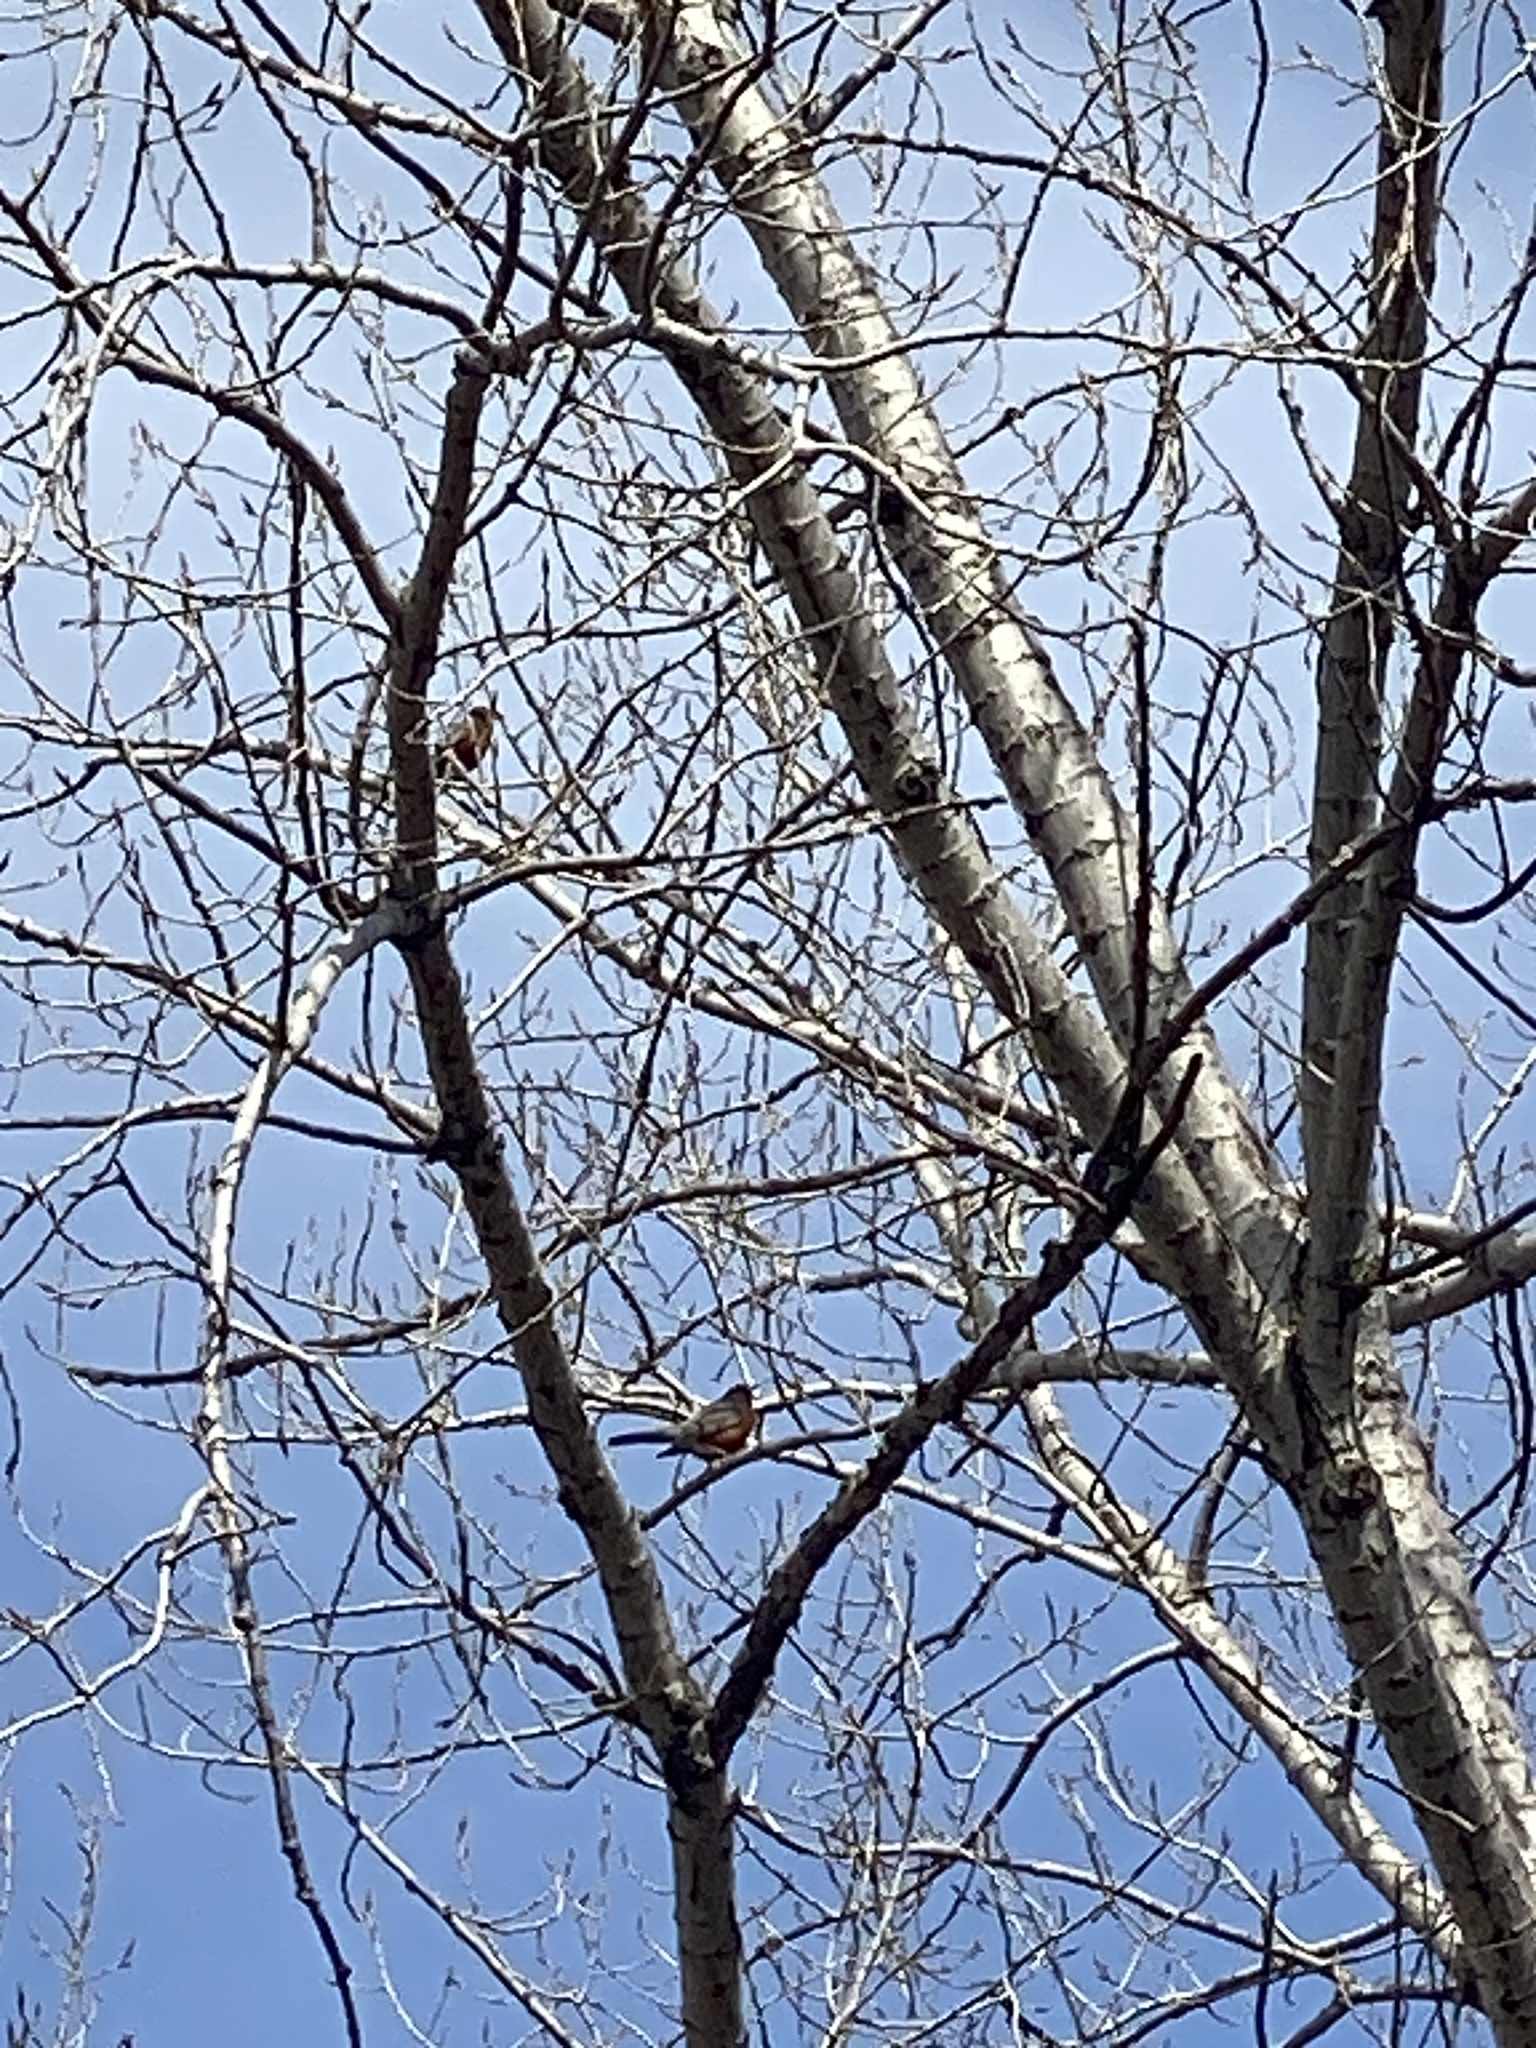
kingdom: Animalia
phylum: Chordata
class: Aves
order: Passeriformes
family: Turdidae
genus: Turdus
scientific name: Turdus migratorius
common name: American robin
